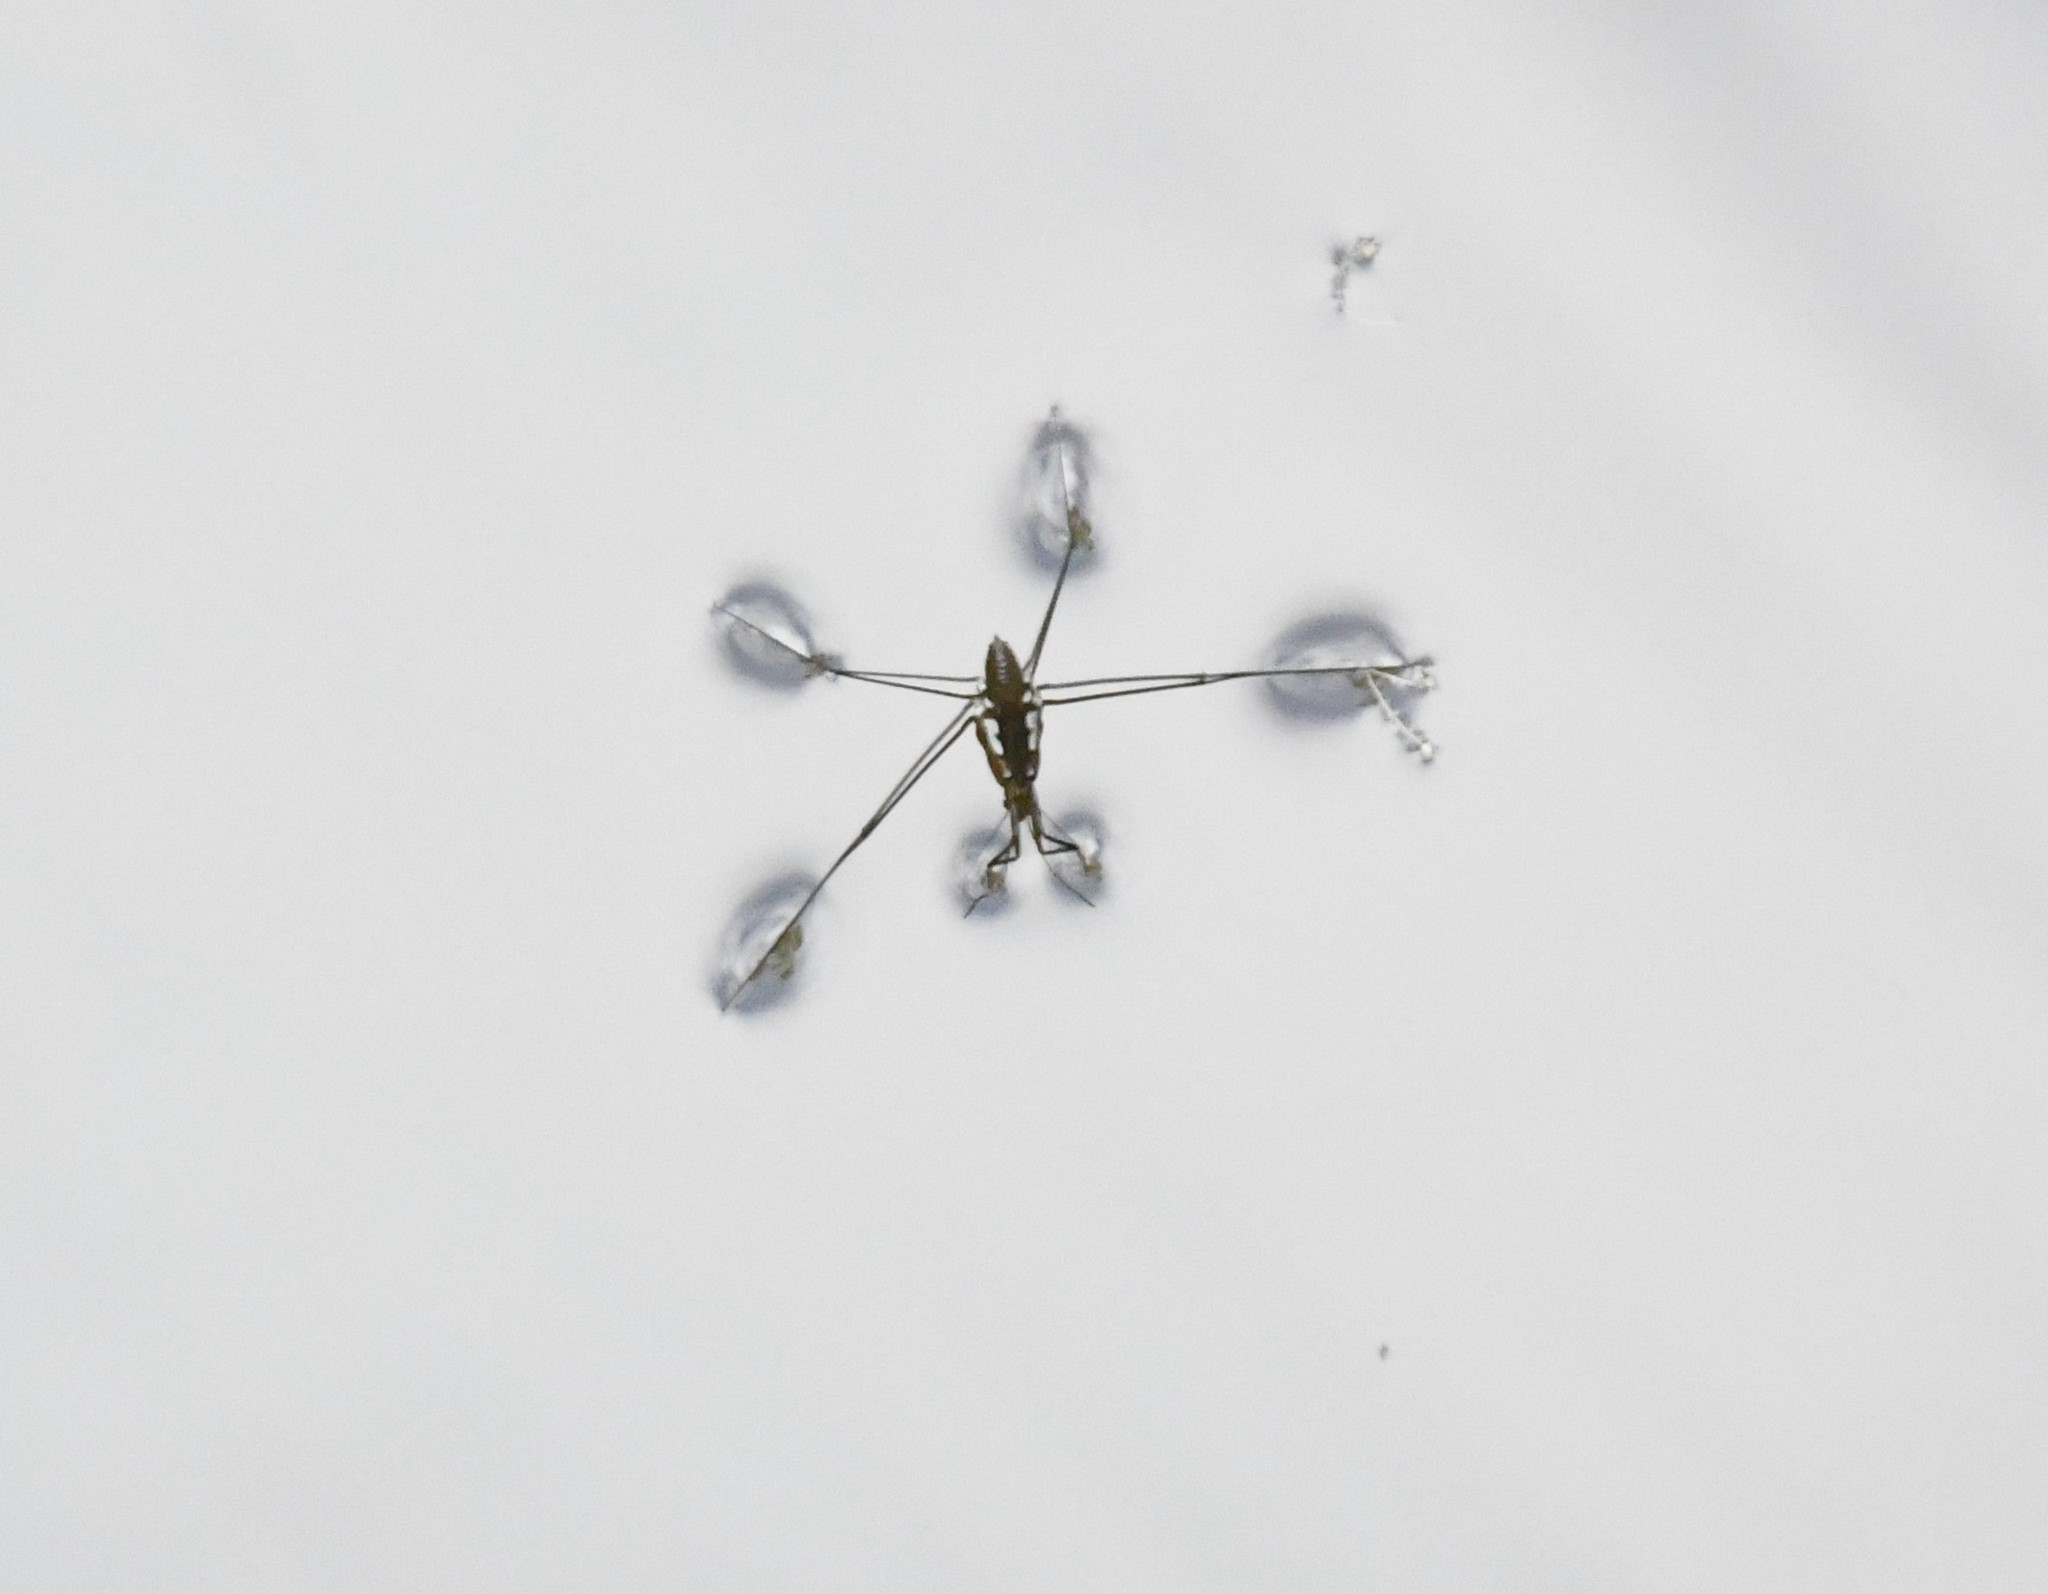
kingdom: Animalia
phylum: Arthropoda
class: Insecta
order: Hemiptera
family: Gerridae
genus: Tenagogerris
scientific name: Tenagogerris euphrosyne
